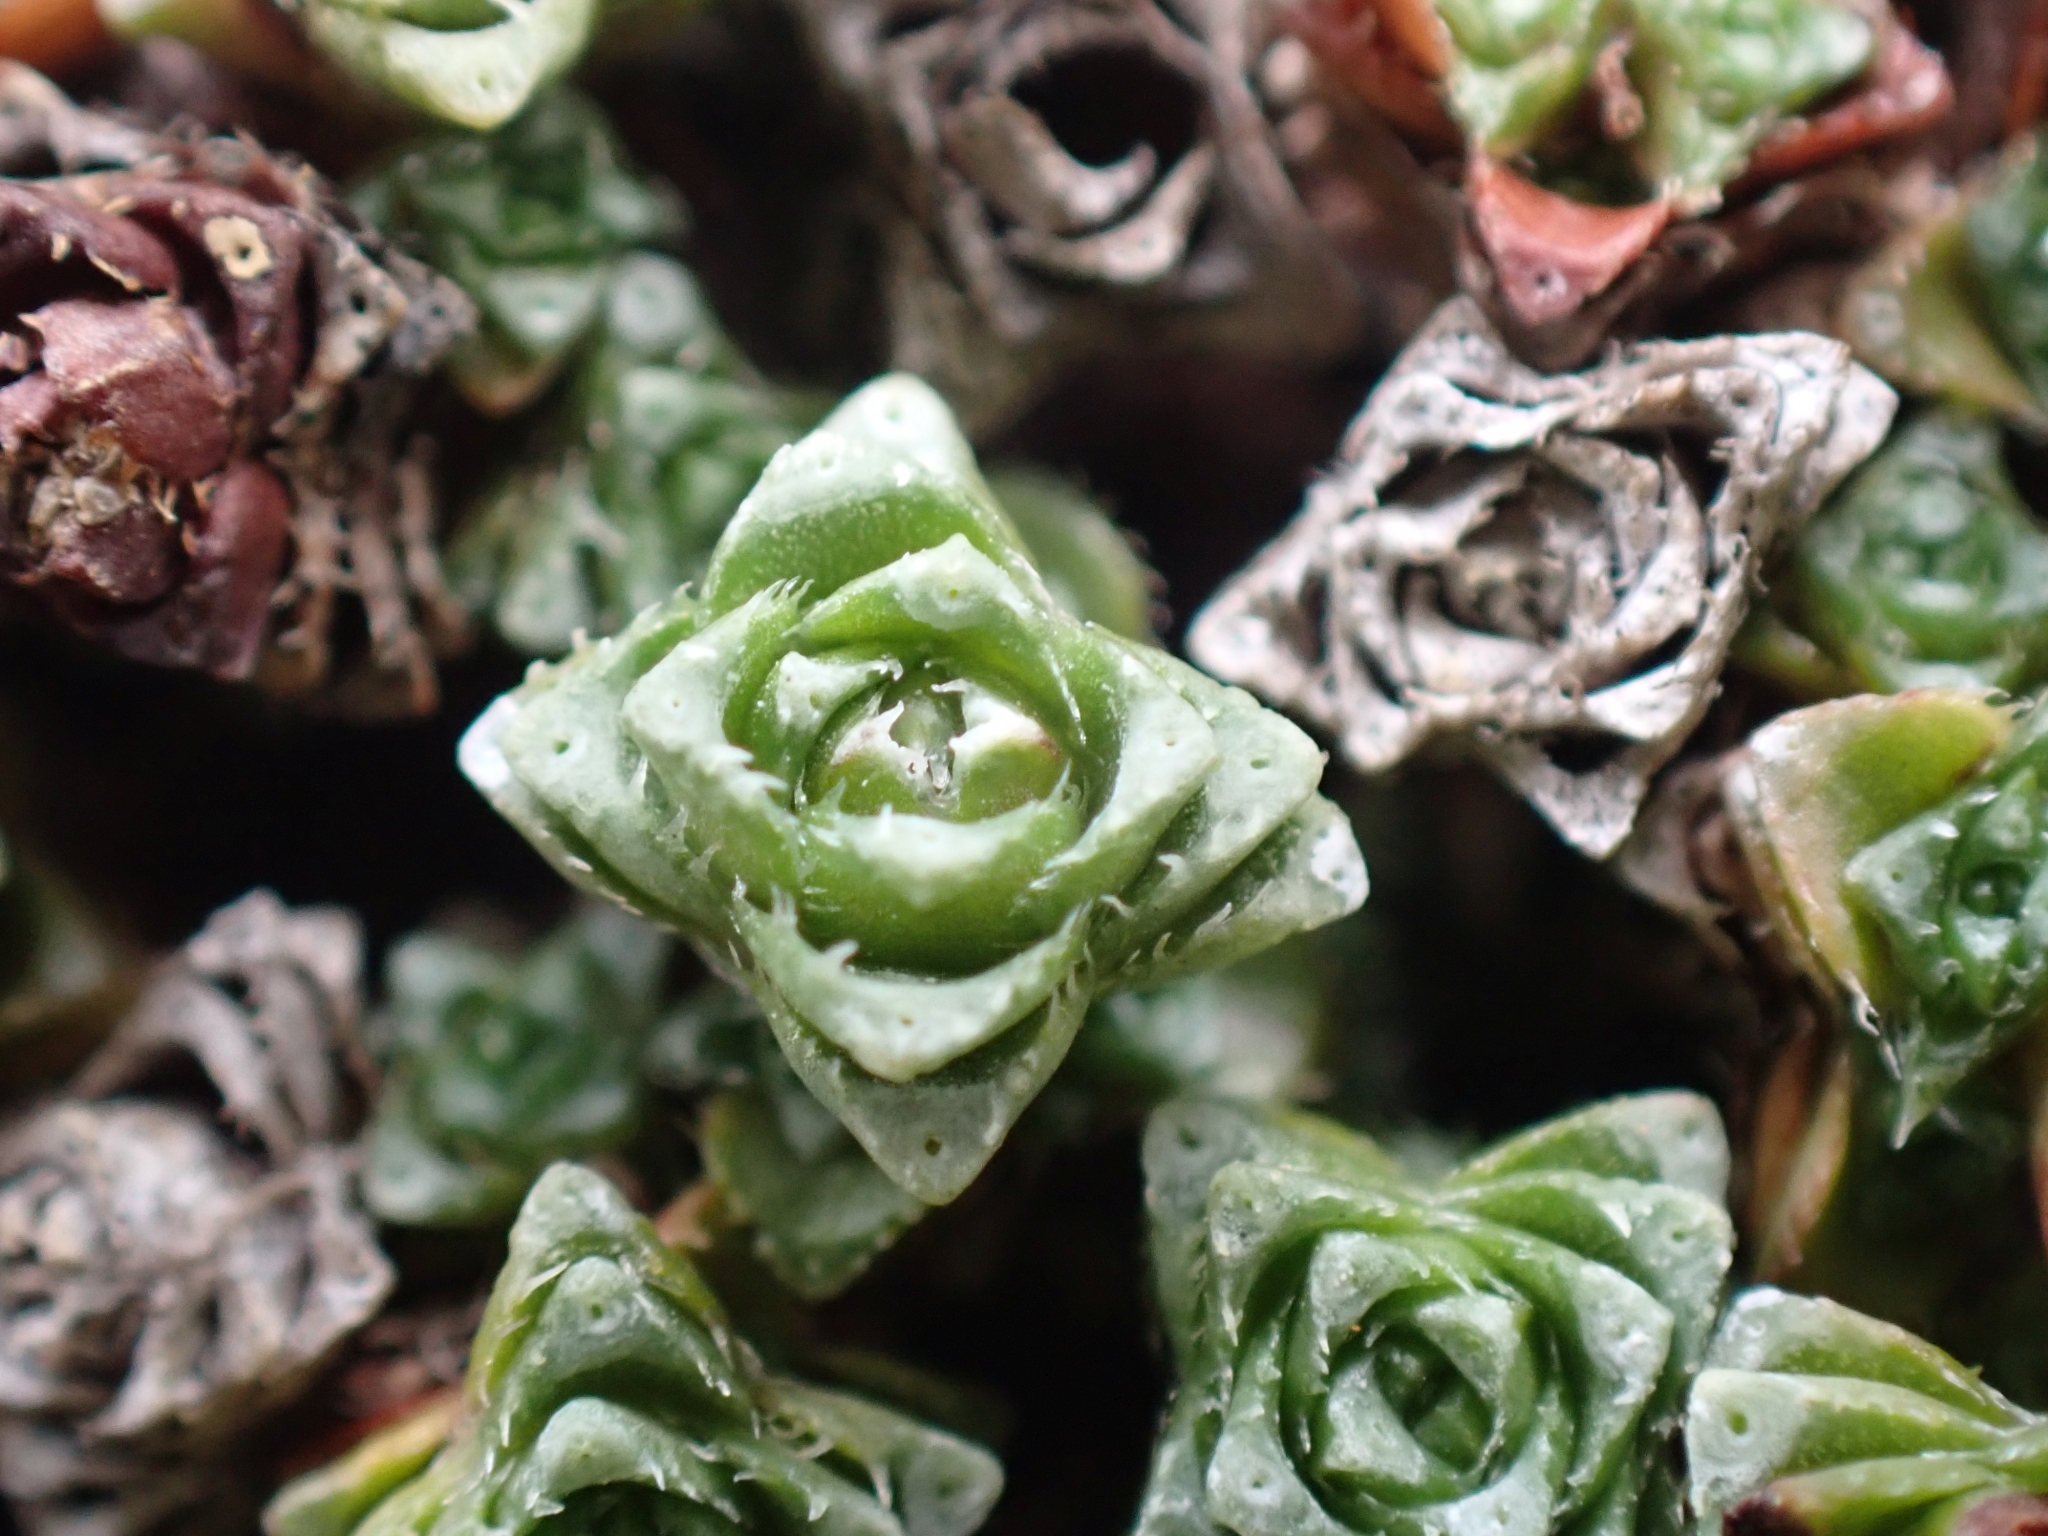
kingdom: Plantae
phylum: Tracheophyta
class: Magnoliopsida
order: Saxifragales
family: Saxifragaceae
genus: Saxifraga
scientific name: Saxifraga oppositifolia
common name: Purple saxifrage
